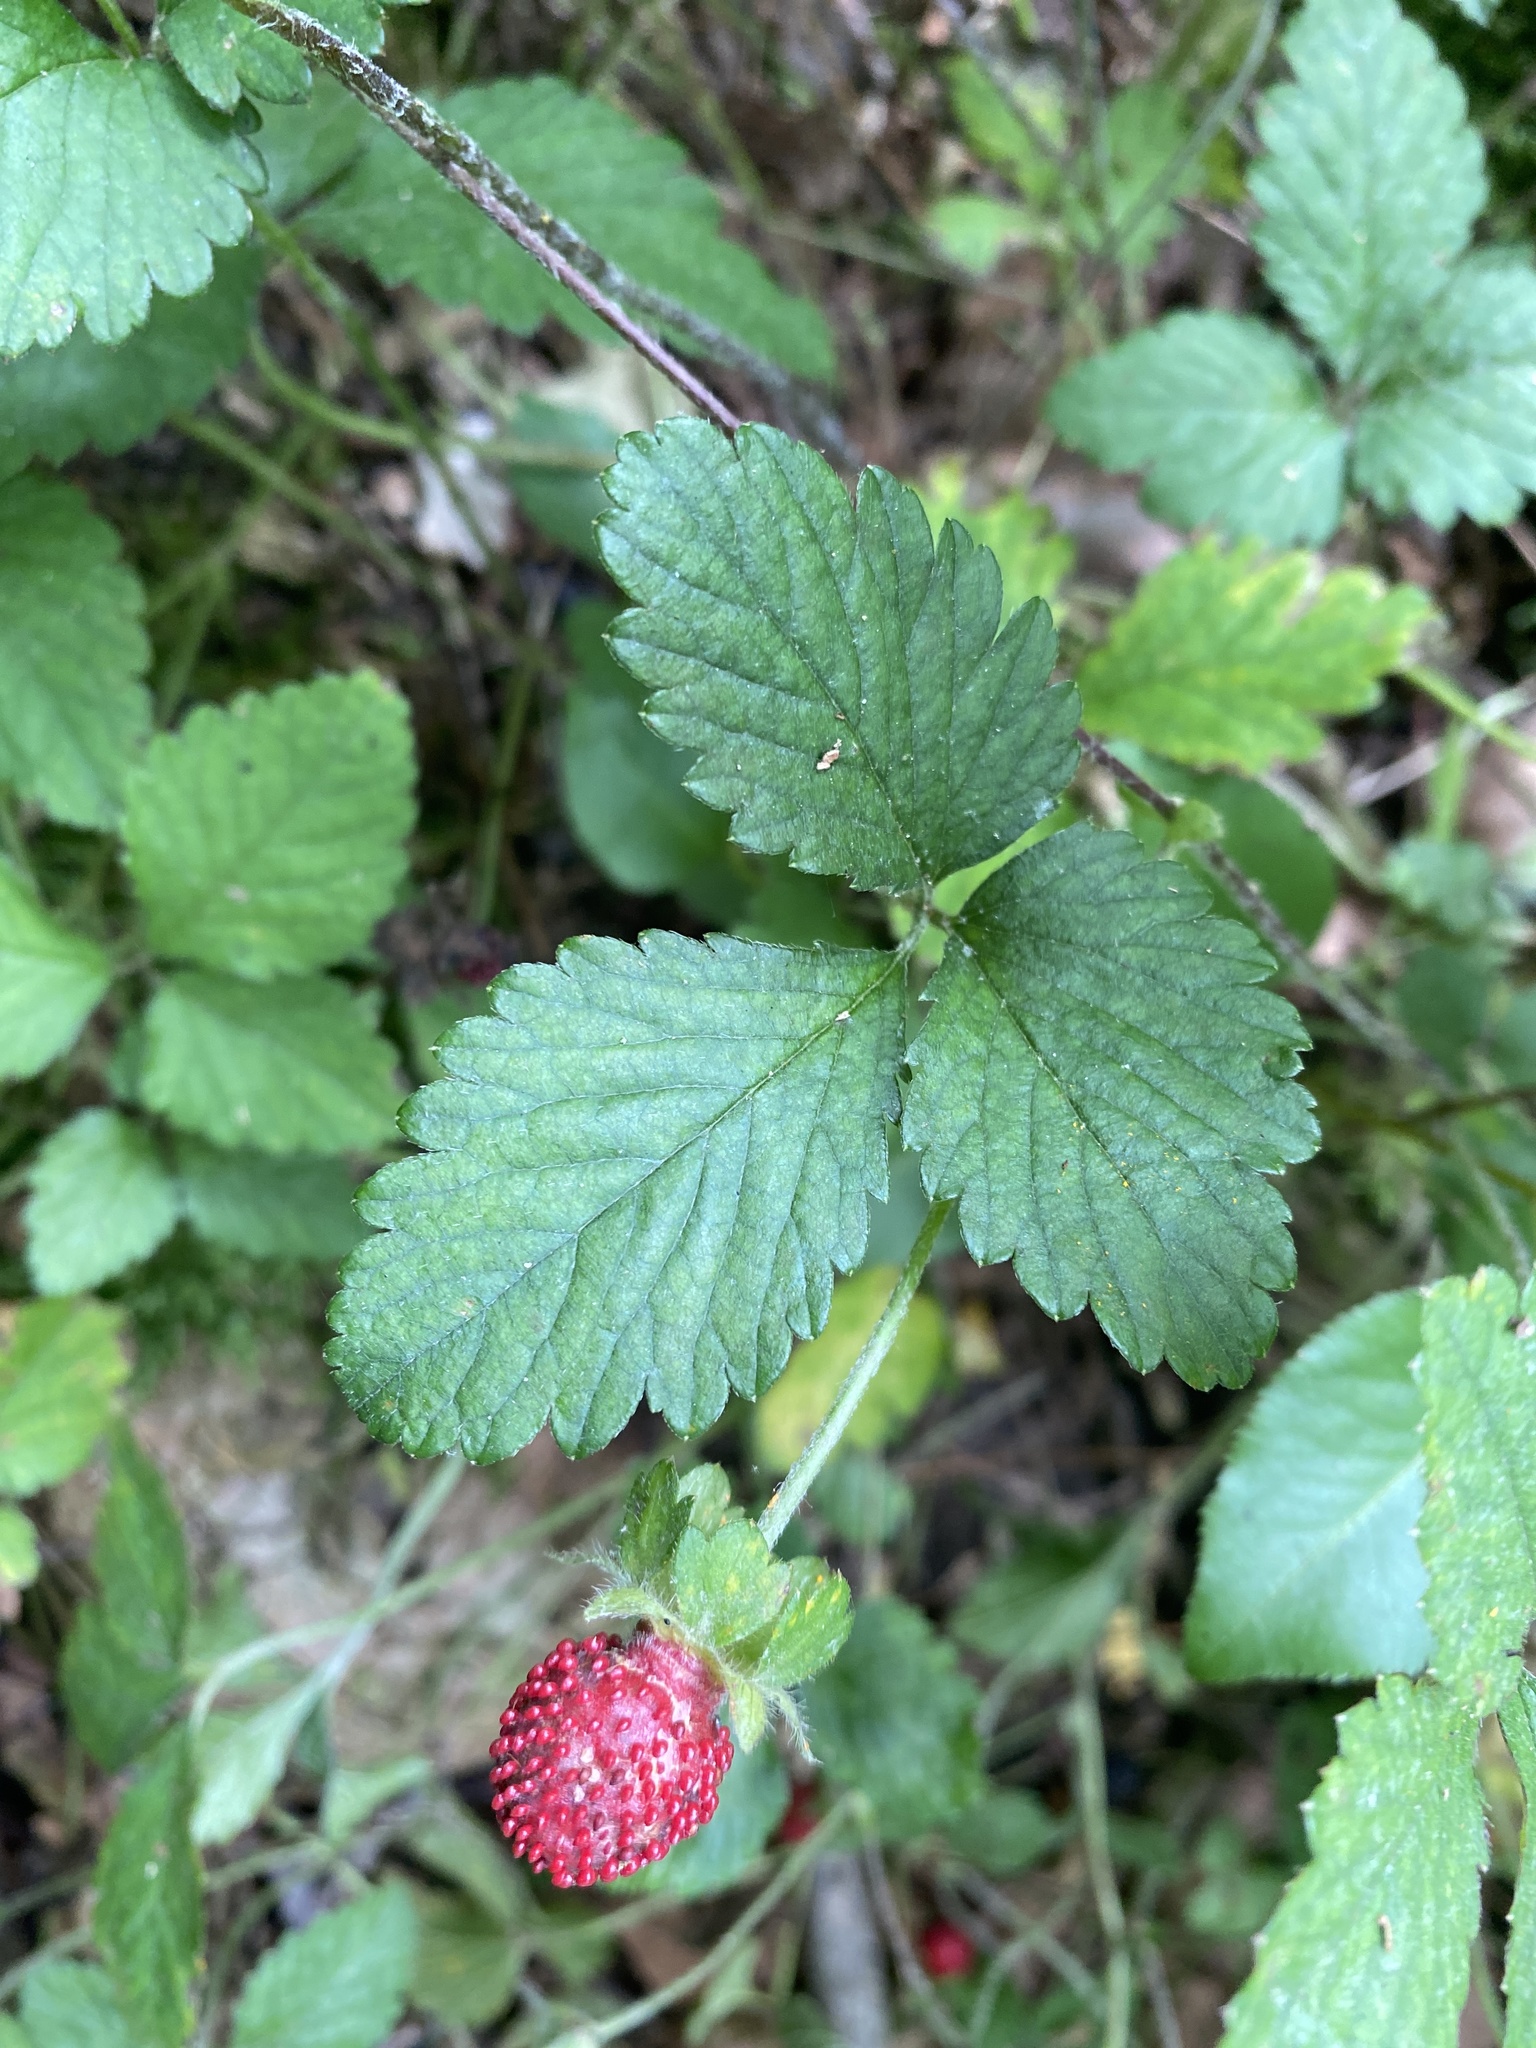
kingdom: Plantae
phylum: Tracheophyta
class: Magnoliopsida
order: Rosales
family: Rosaceae
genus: Potentilla
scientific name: Potentilla indica
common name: Yellow-flowered strawberry
